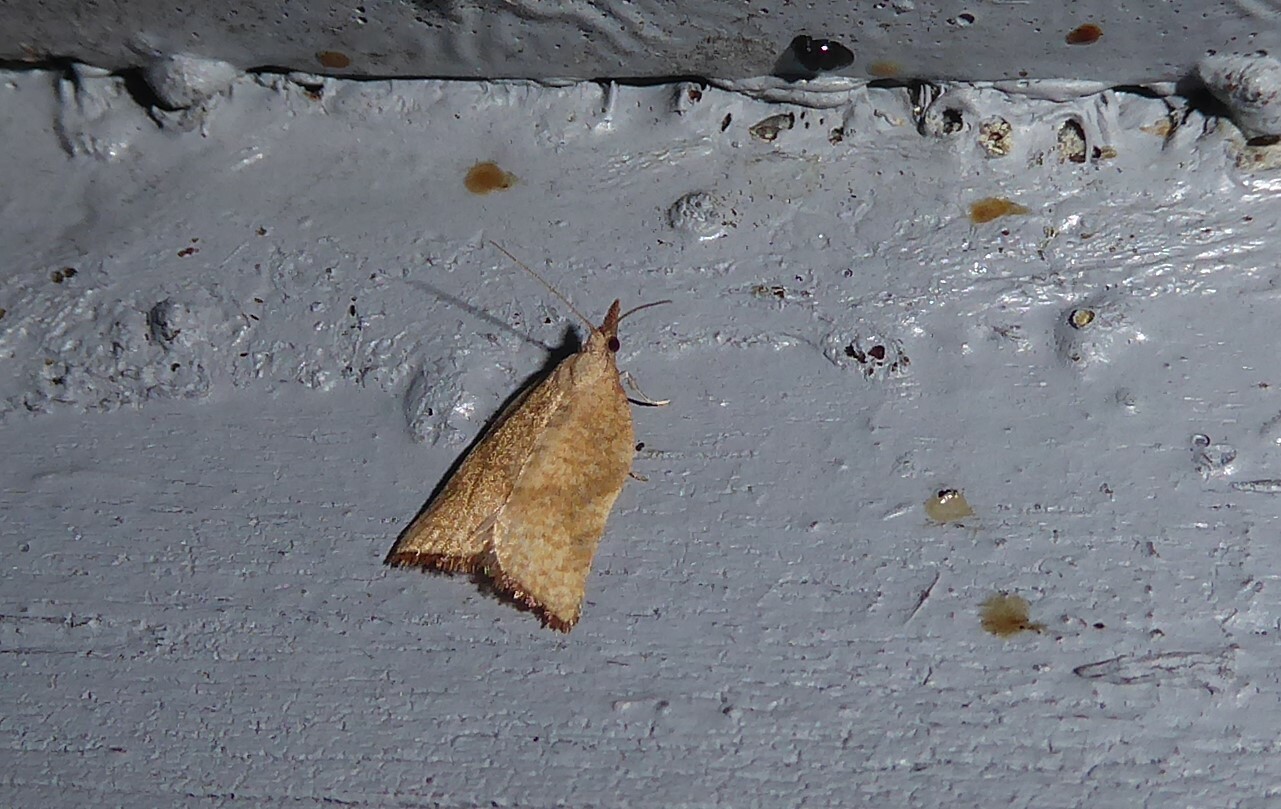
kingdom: Animalia
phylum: Arthropoda
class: Insecta
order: Lepidoptera
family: Tortricidae
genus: Catamacta
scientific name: Catamacta gavisana
